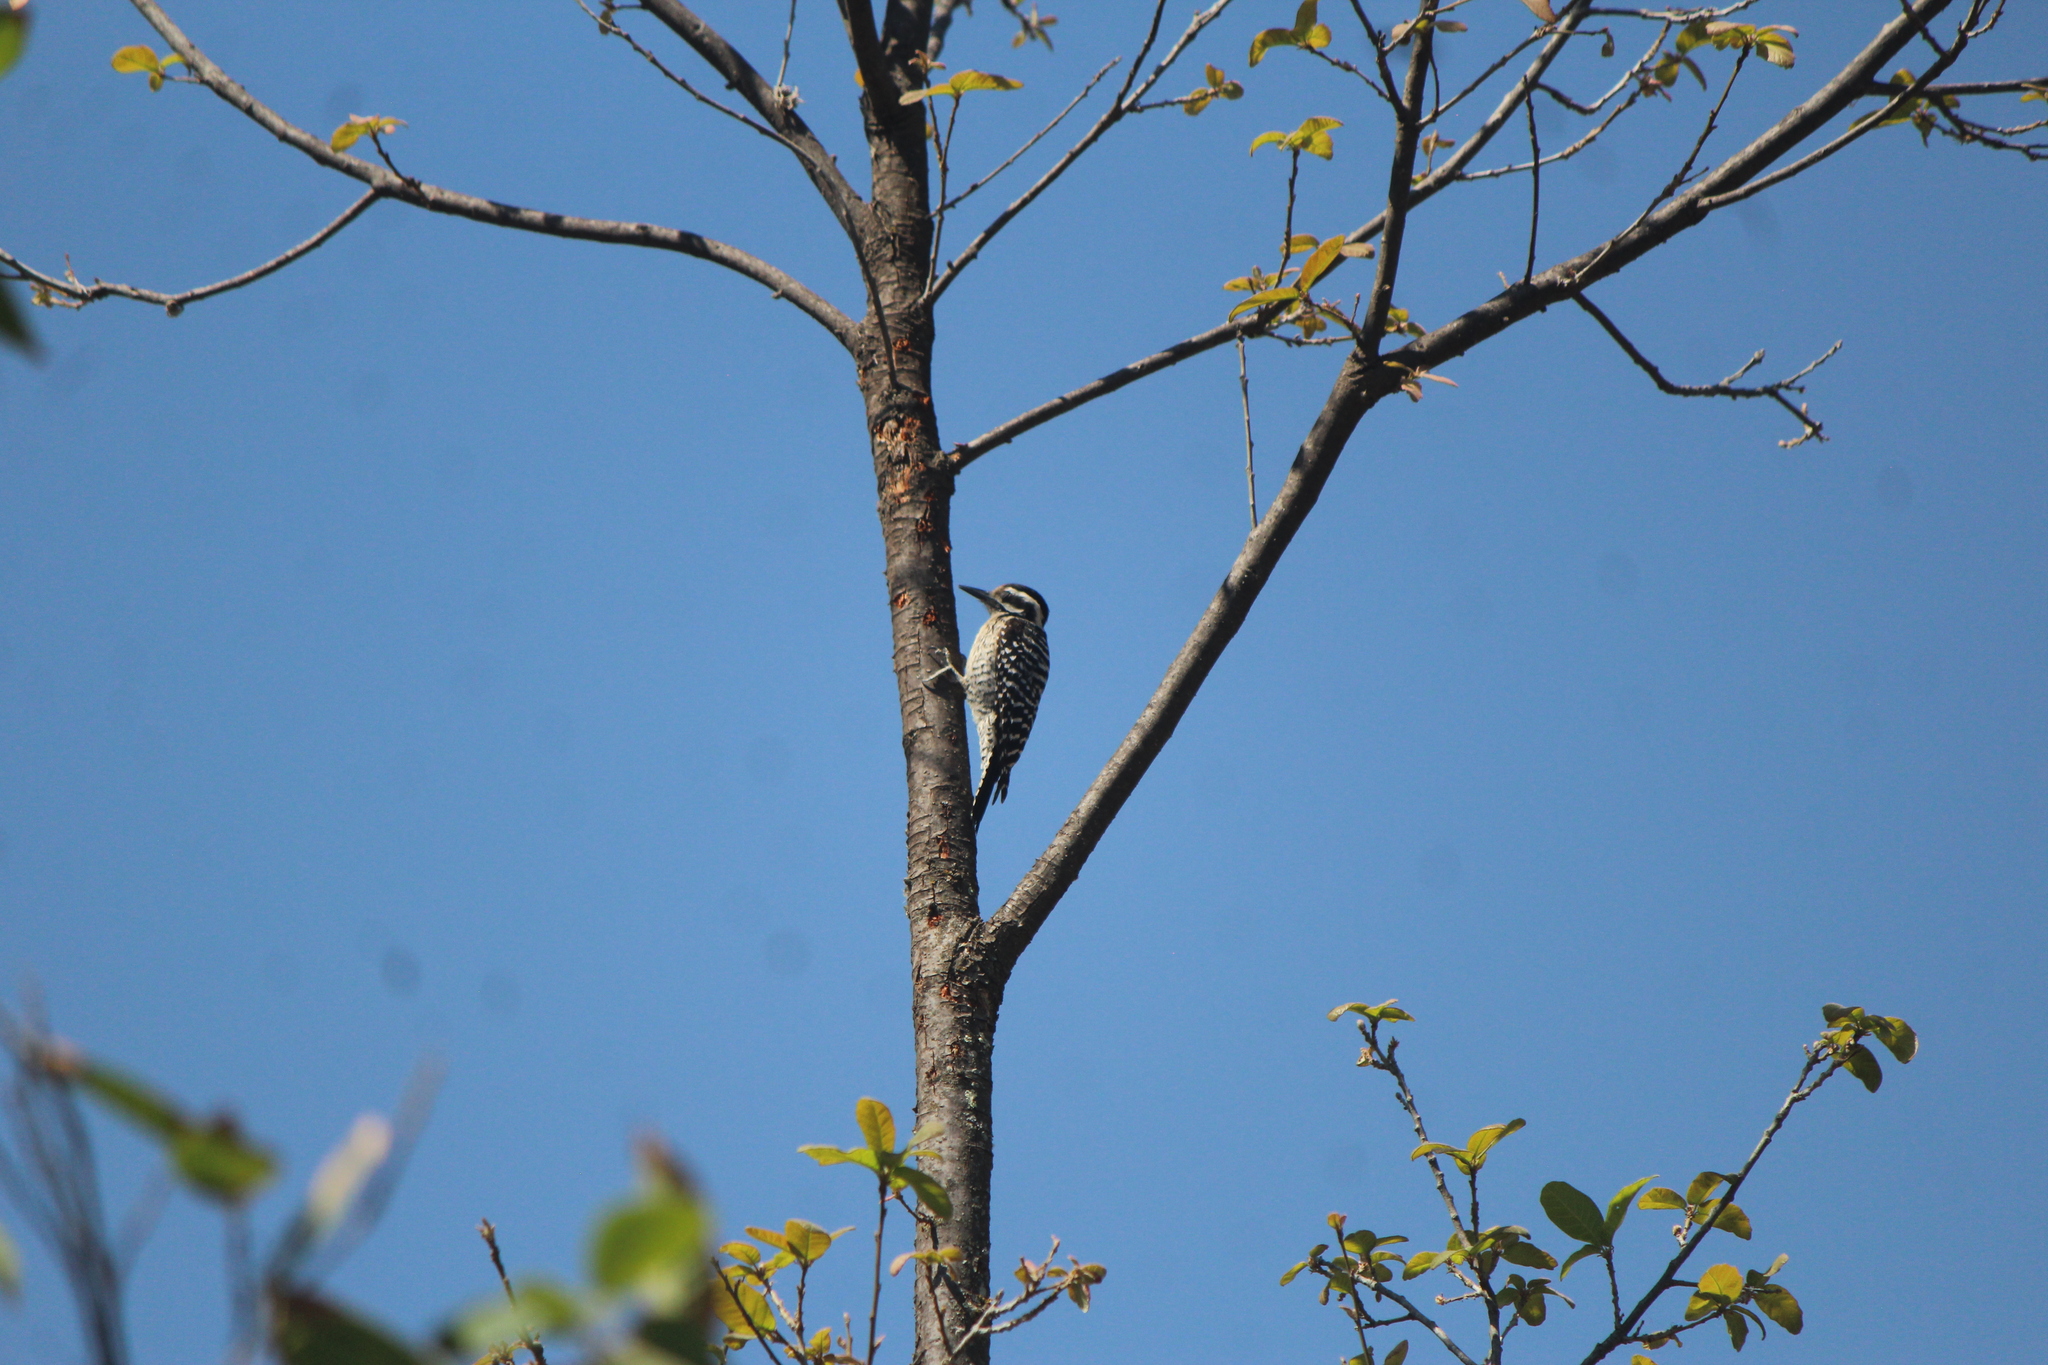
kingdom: Animalia
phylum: Chordata
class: Aves
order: Piciformes
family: Picidae
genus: Dryobates
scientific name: Dryobates scalaris
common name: Ladder-backed woodpecker
